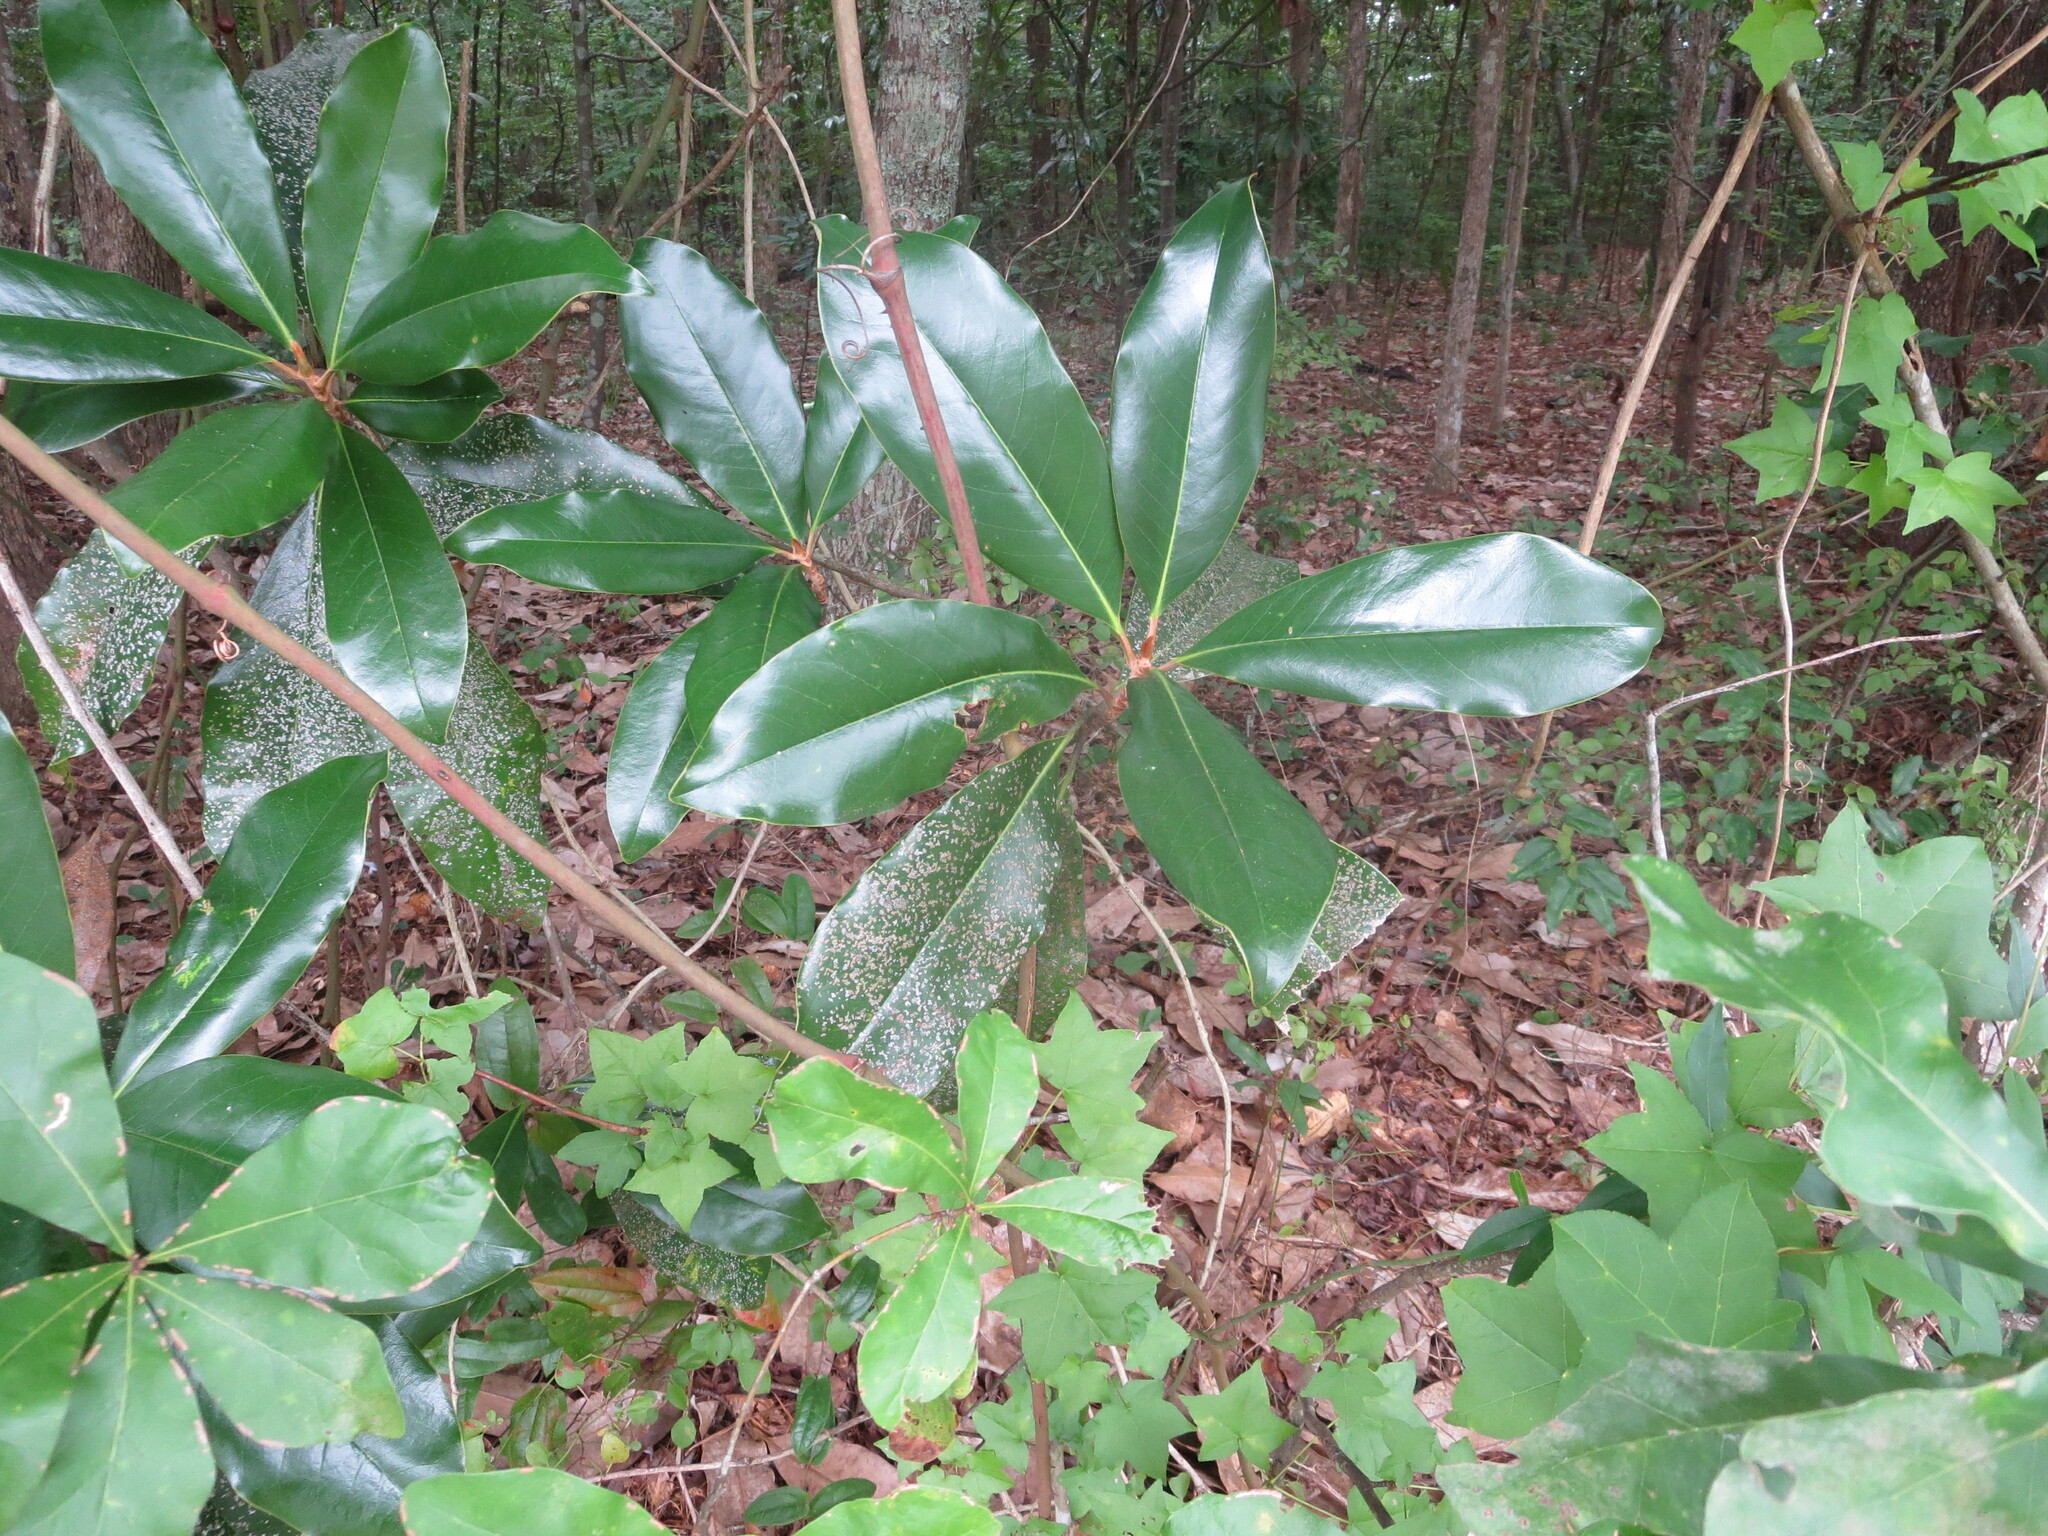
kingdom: Plantae
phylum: Tracheophyta
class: Magnoliopsida
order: Magnoliales
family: Magnoliaceae
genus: Magnolia
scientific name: Magnolia grandiflora
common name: Southern magnolia
